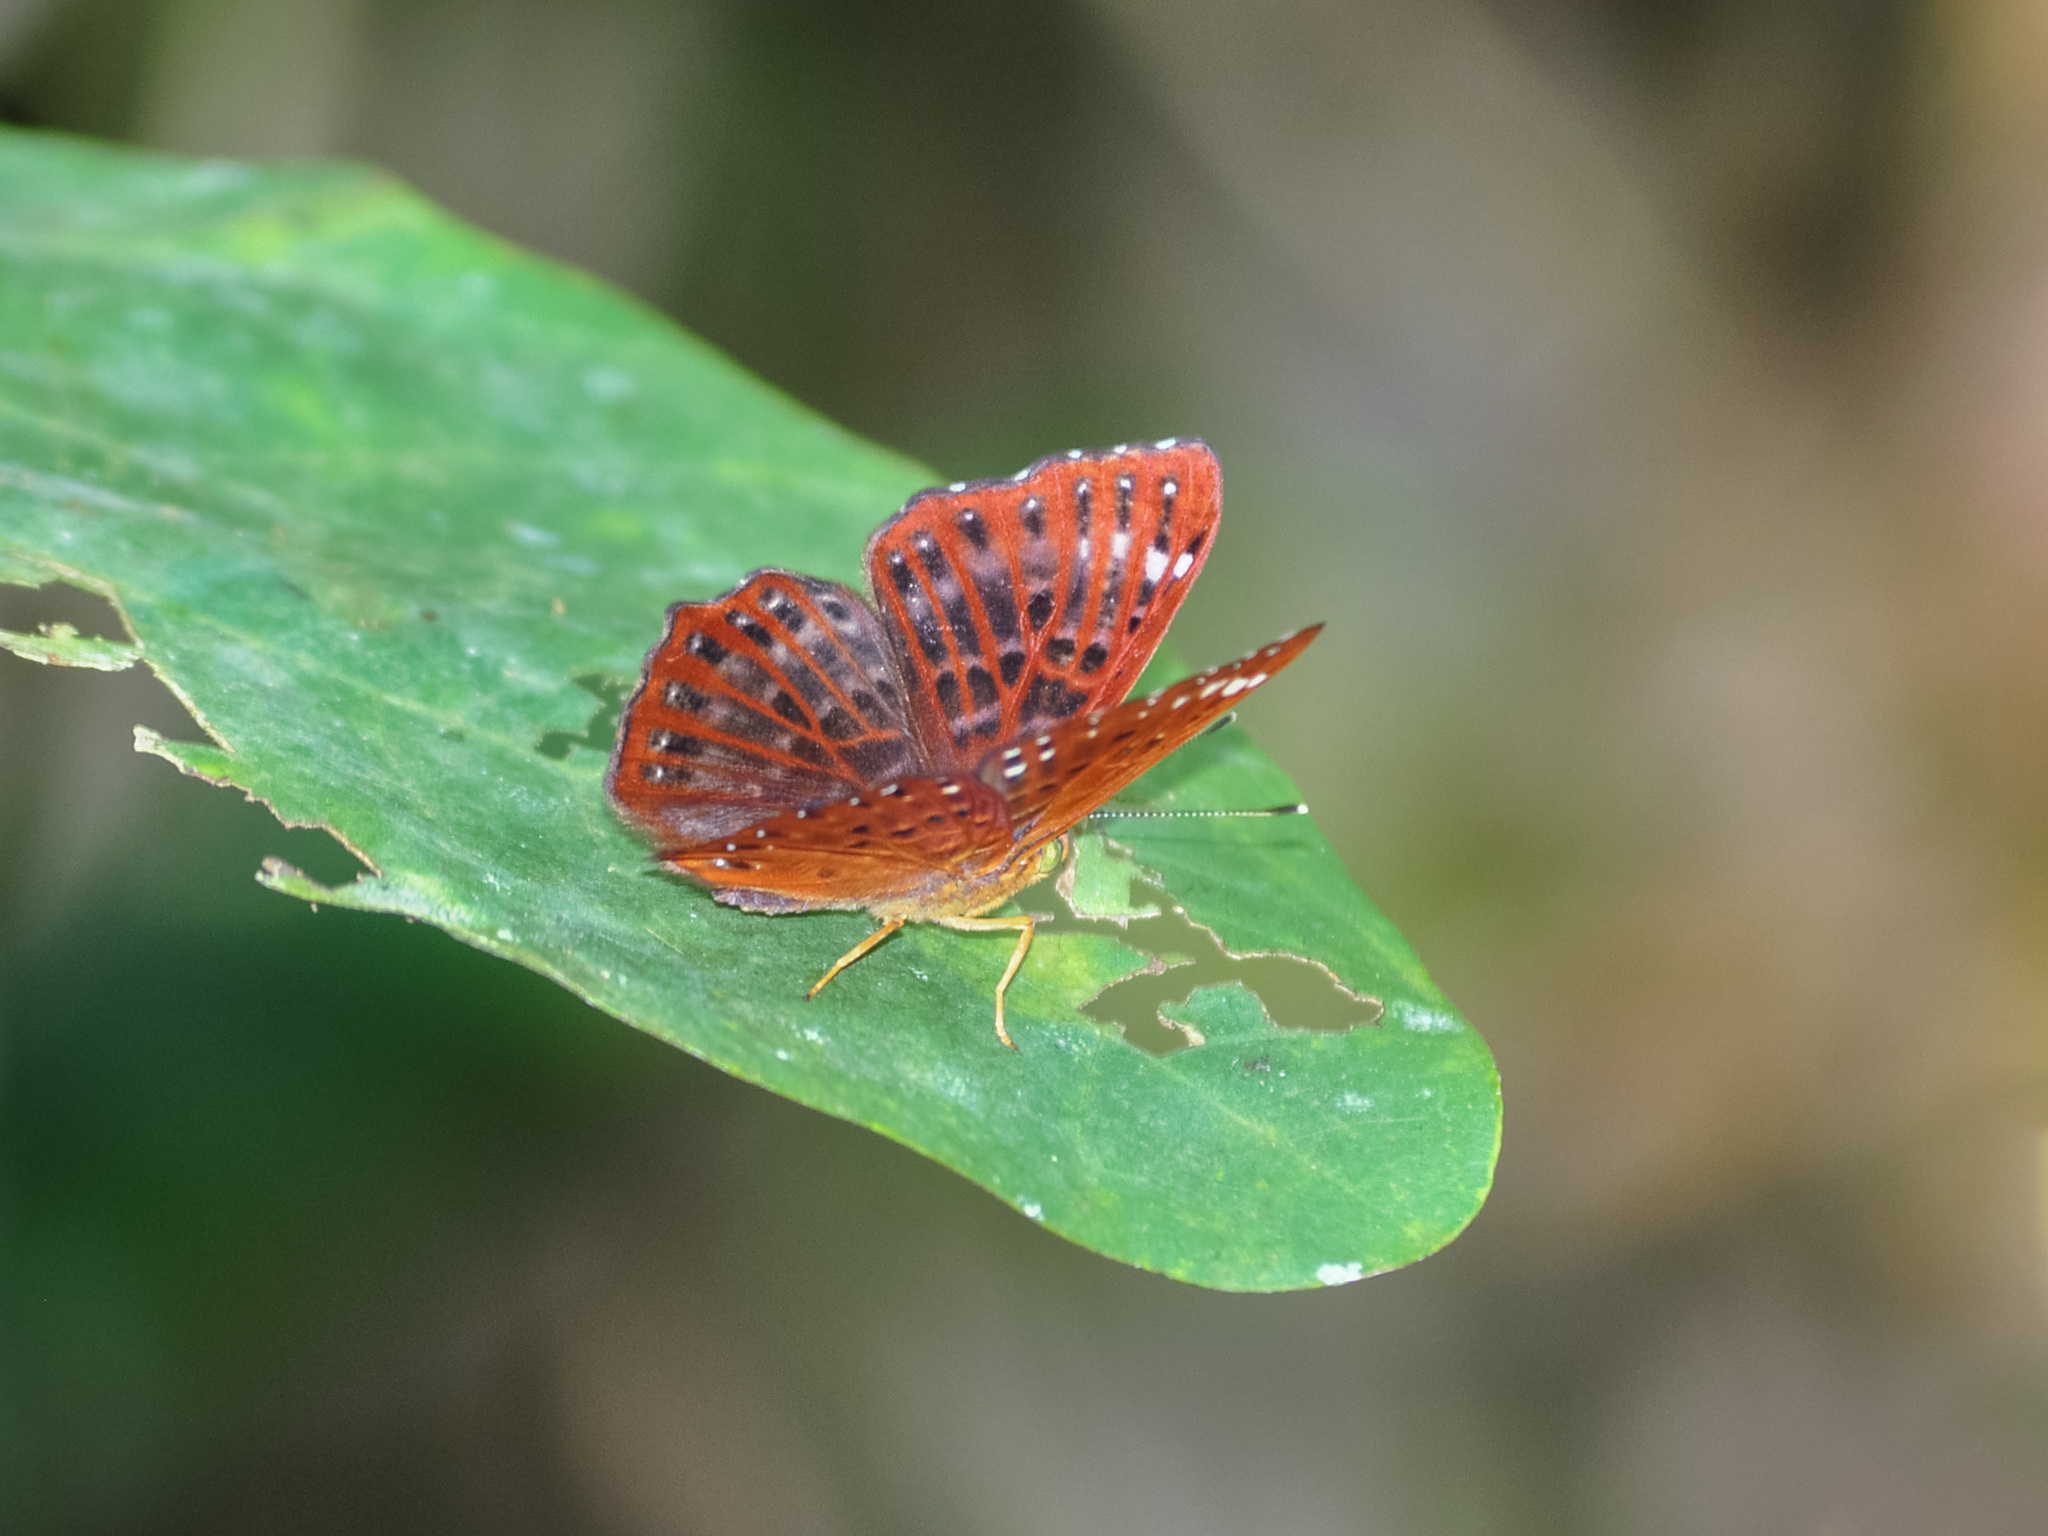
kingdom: Animalia
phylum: Arthropoda
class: Insecta
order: Lepidoptera
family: Riodinidae
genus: Zemeros
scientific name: Zemeros flegyas
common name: Punchinello
